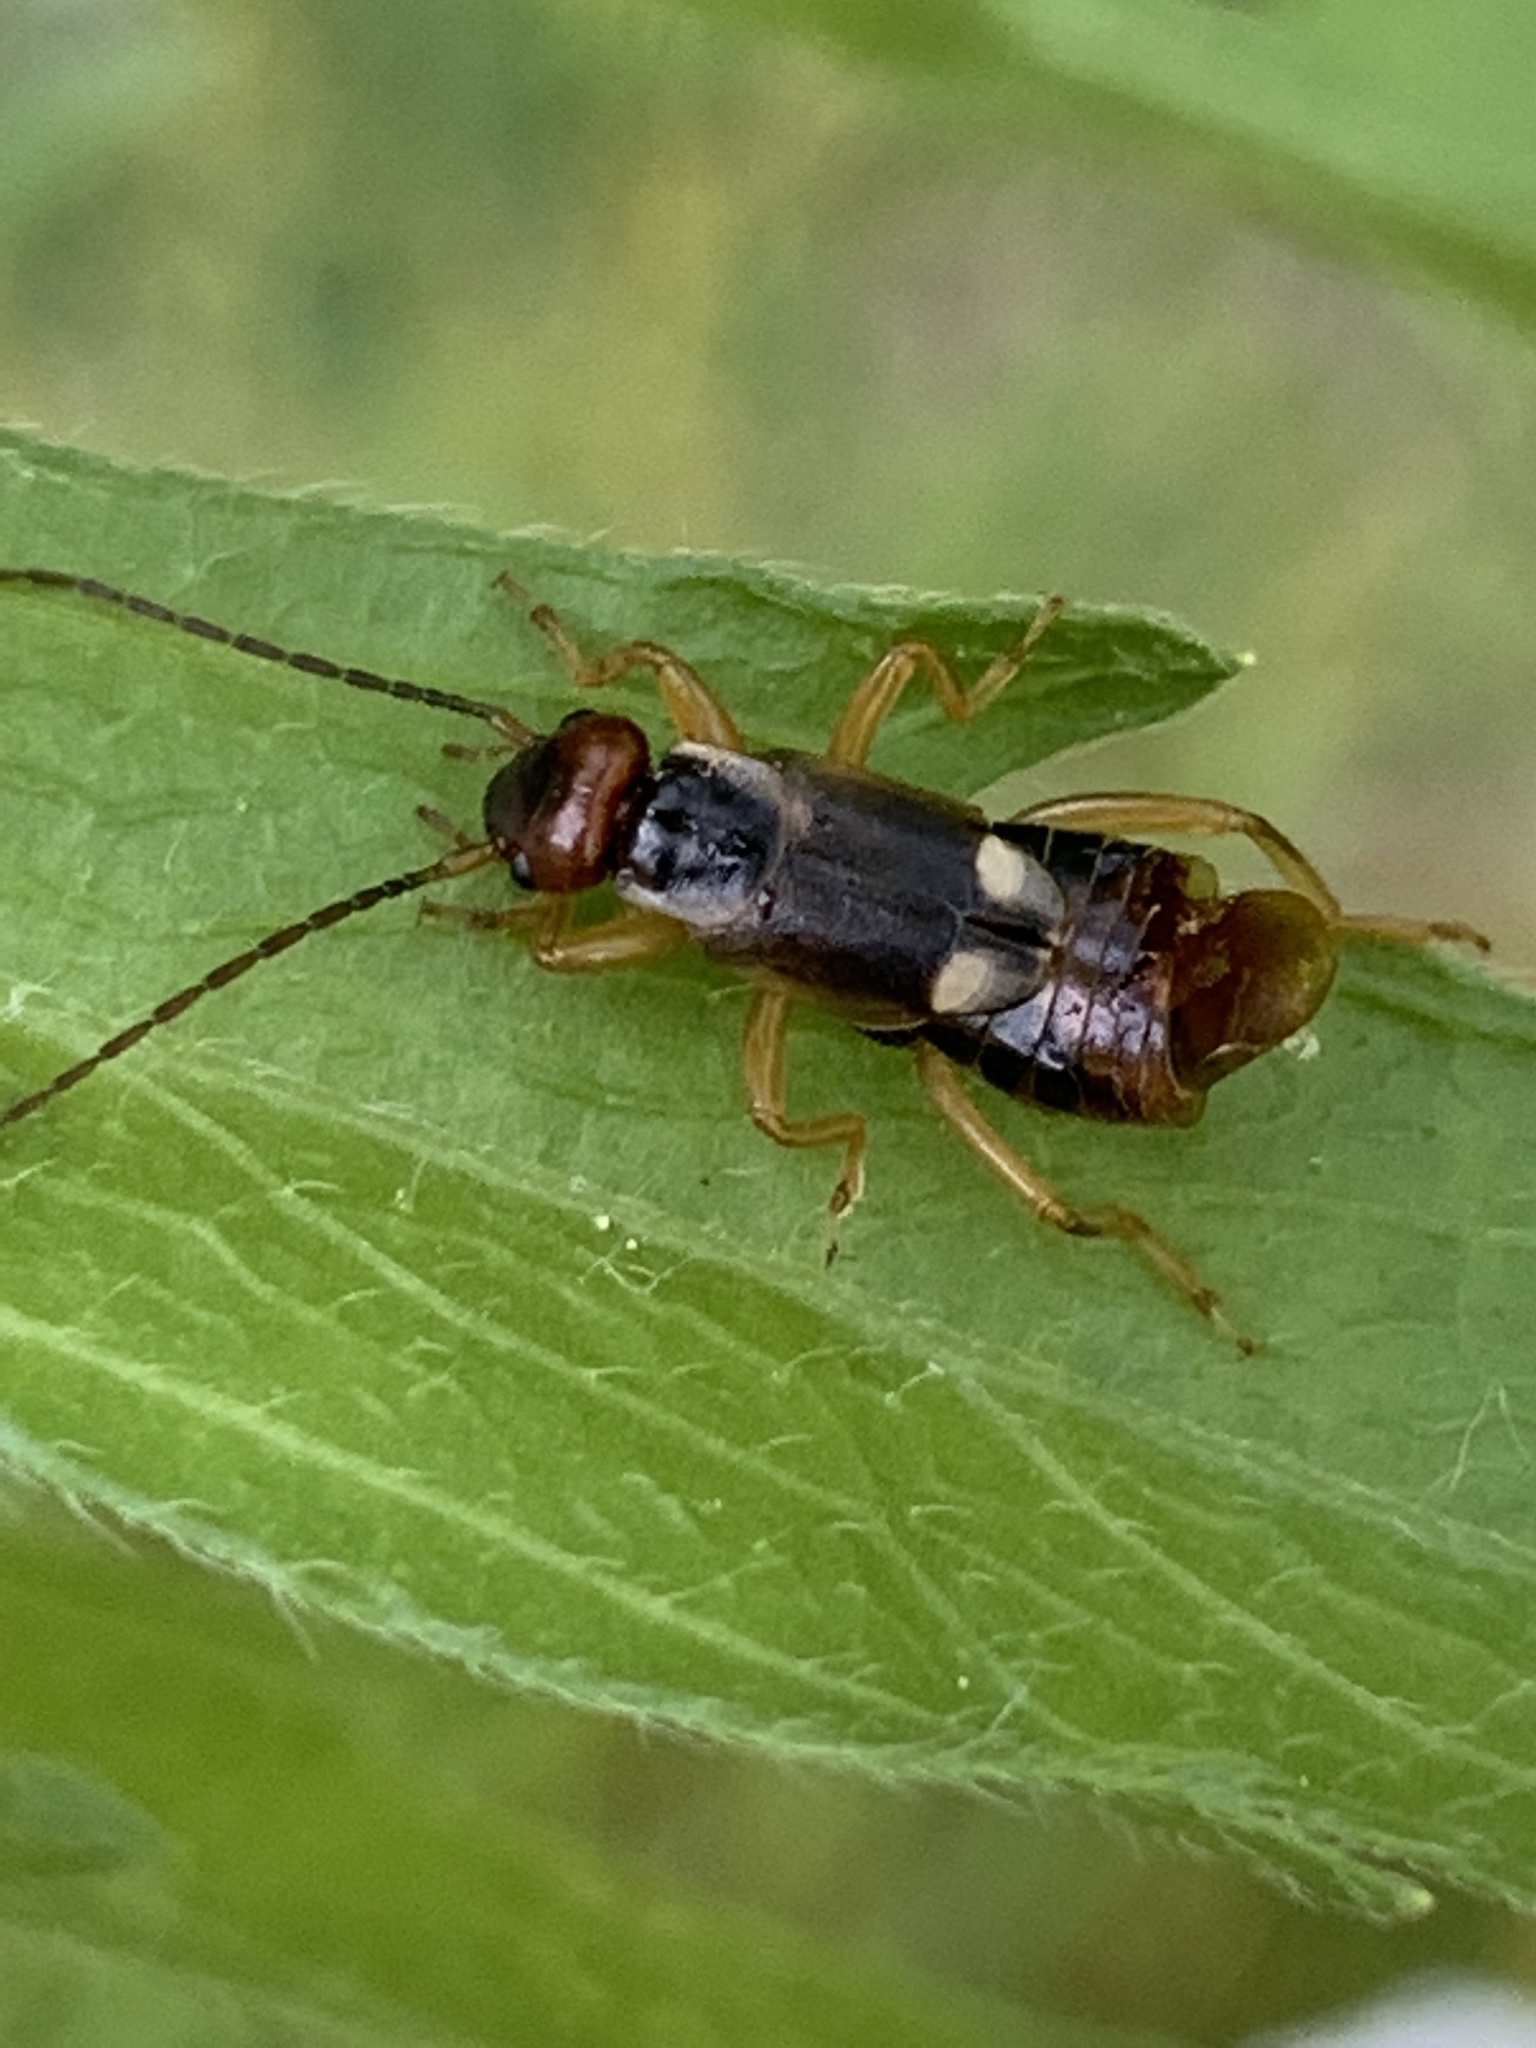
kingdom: Animalia
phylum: Arthropoda
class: Insecta
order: Dermaptera
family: Forficulidae
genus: Forficula
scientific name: Forficula
